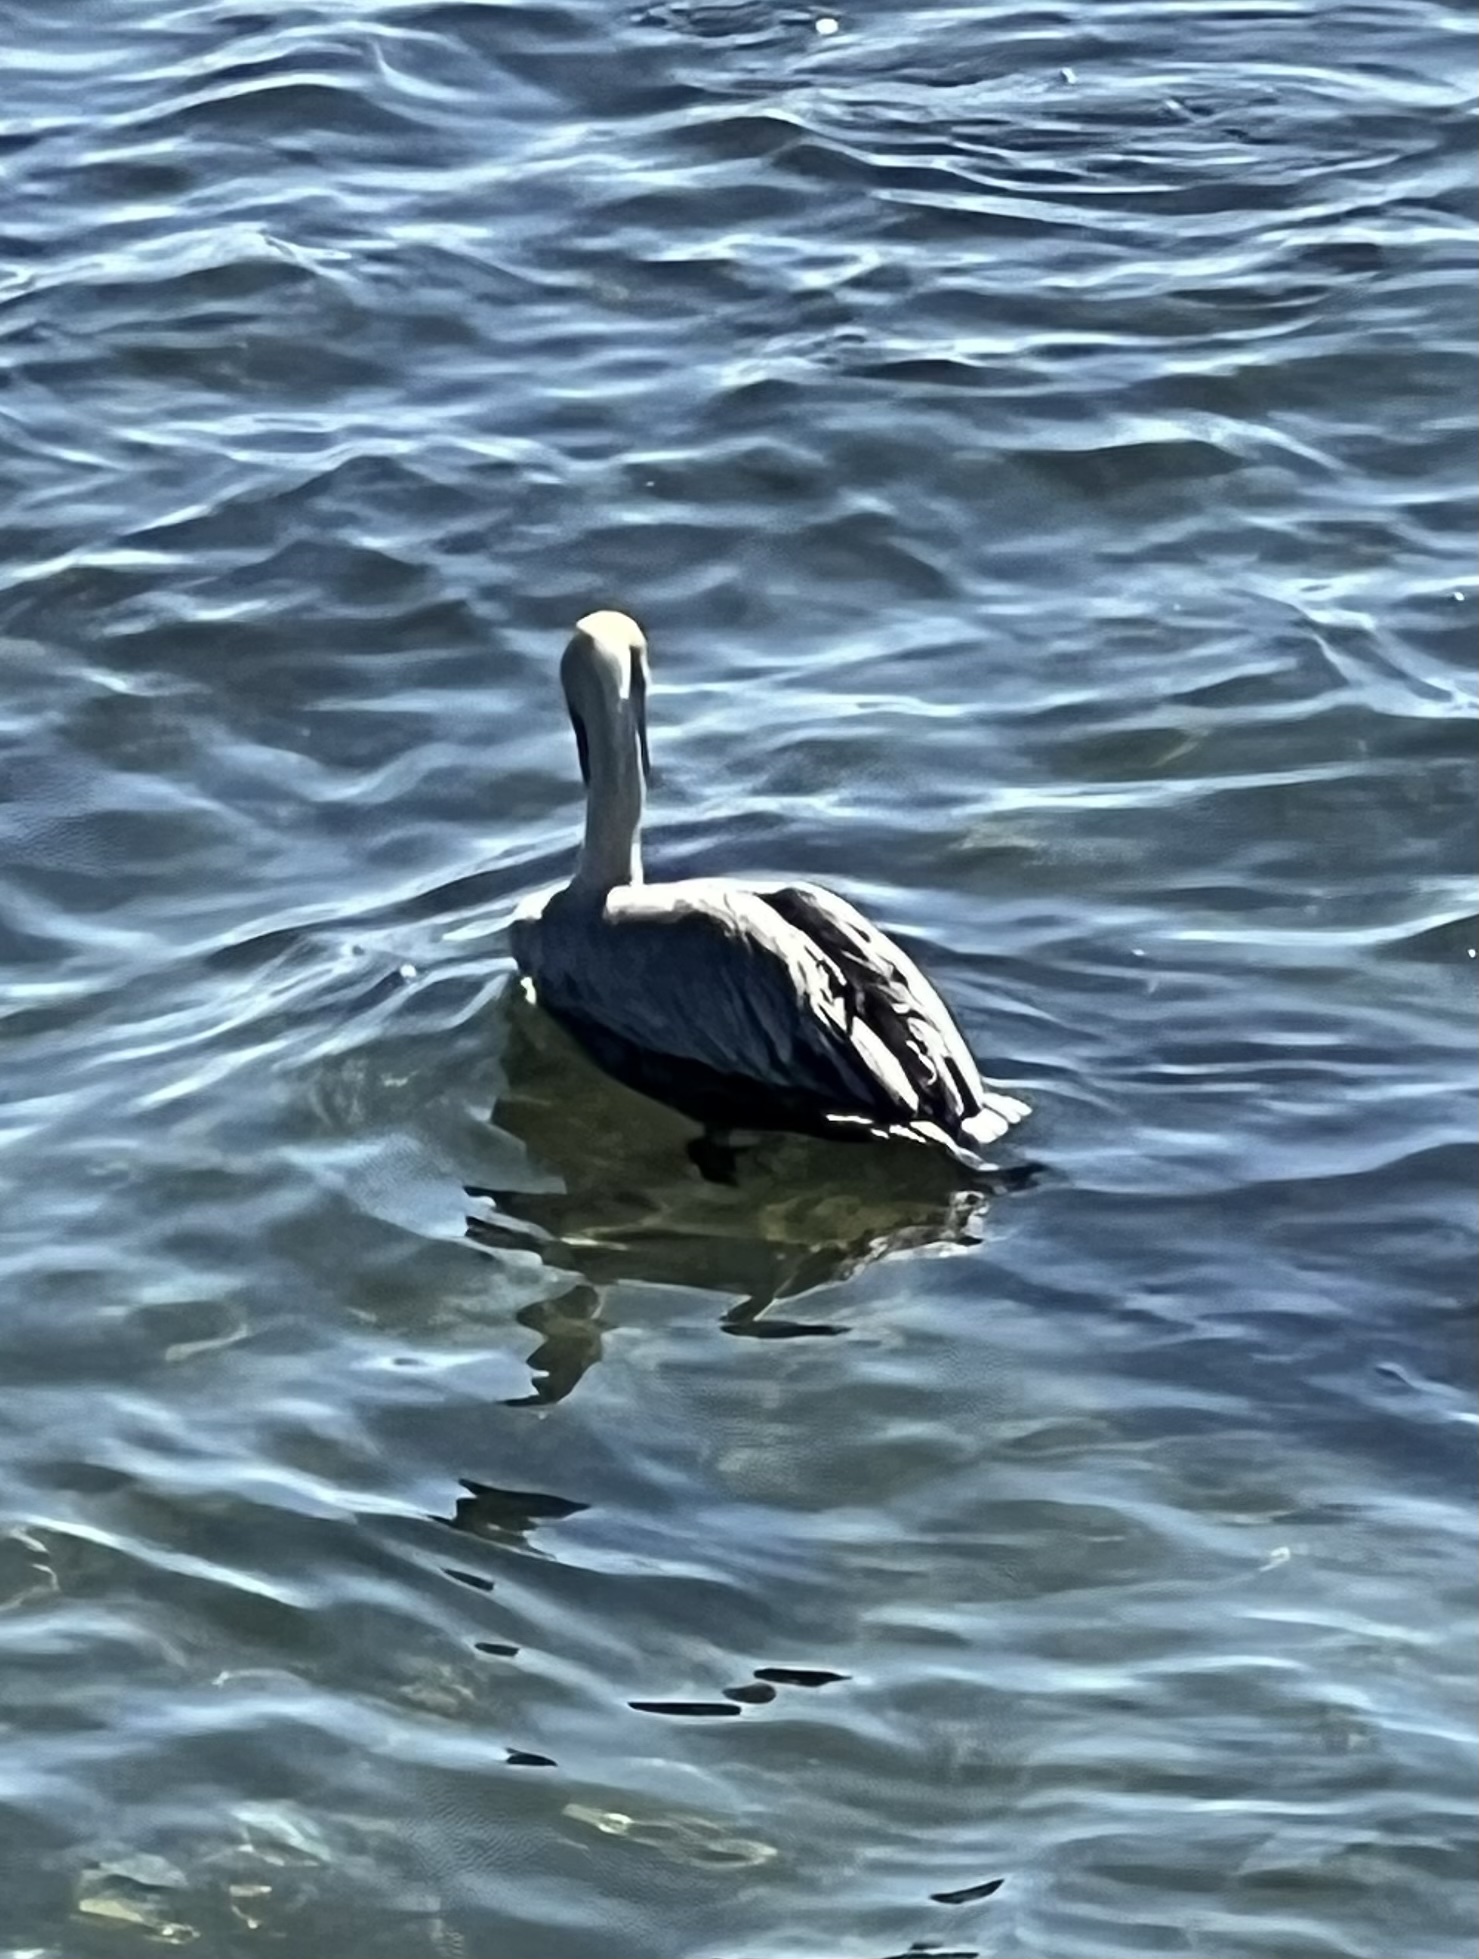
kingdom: Animalia
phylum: Chordata
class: Aves
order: Pelecaniformes
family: Pelecanidae
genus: Pelecanus
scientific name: Pelecanus occidentalis
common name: Brown pelican
